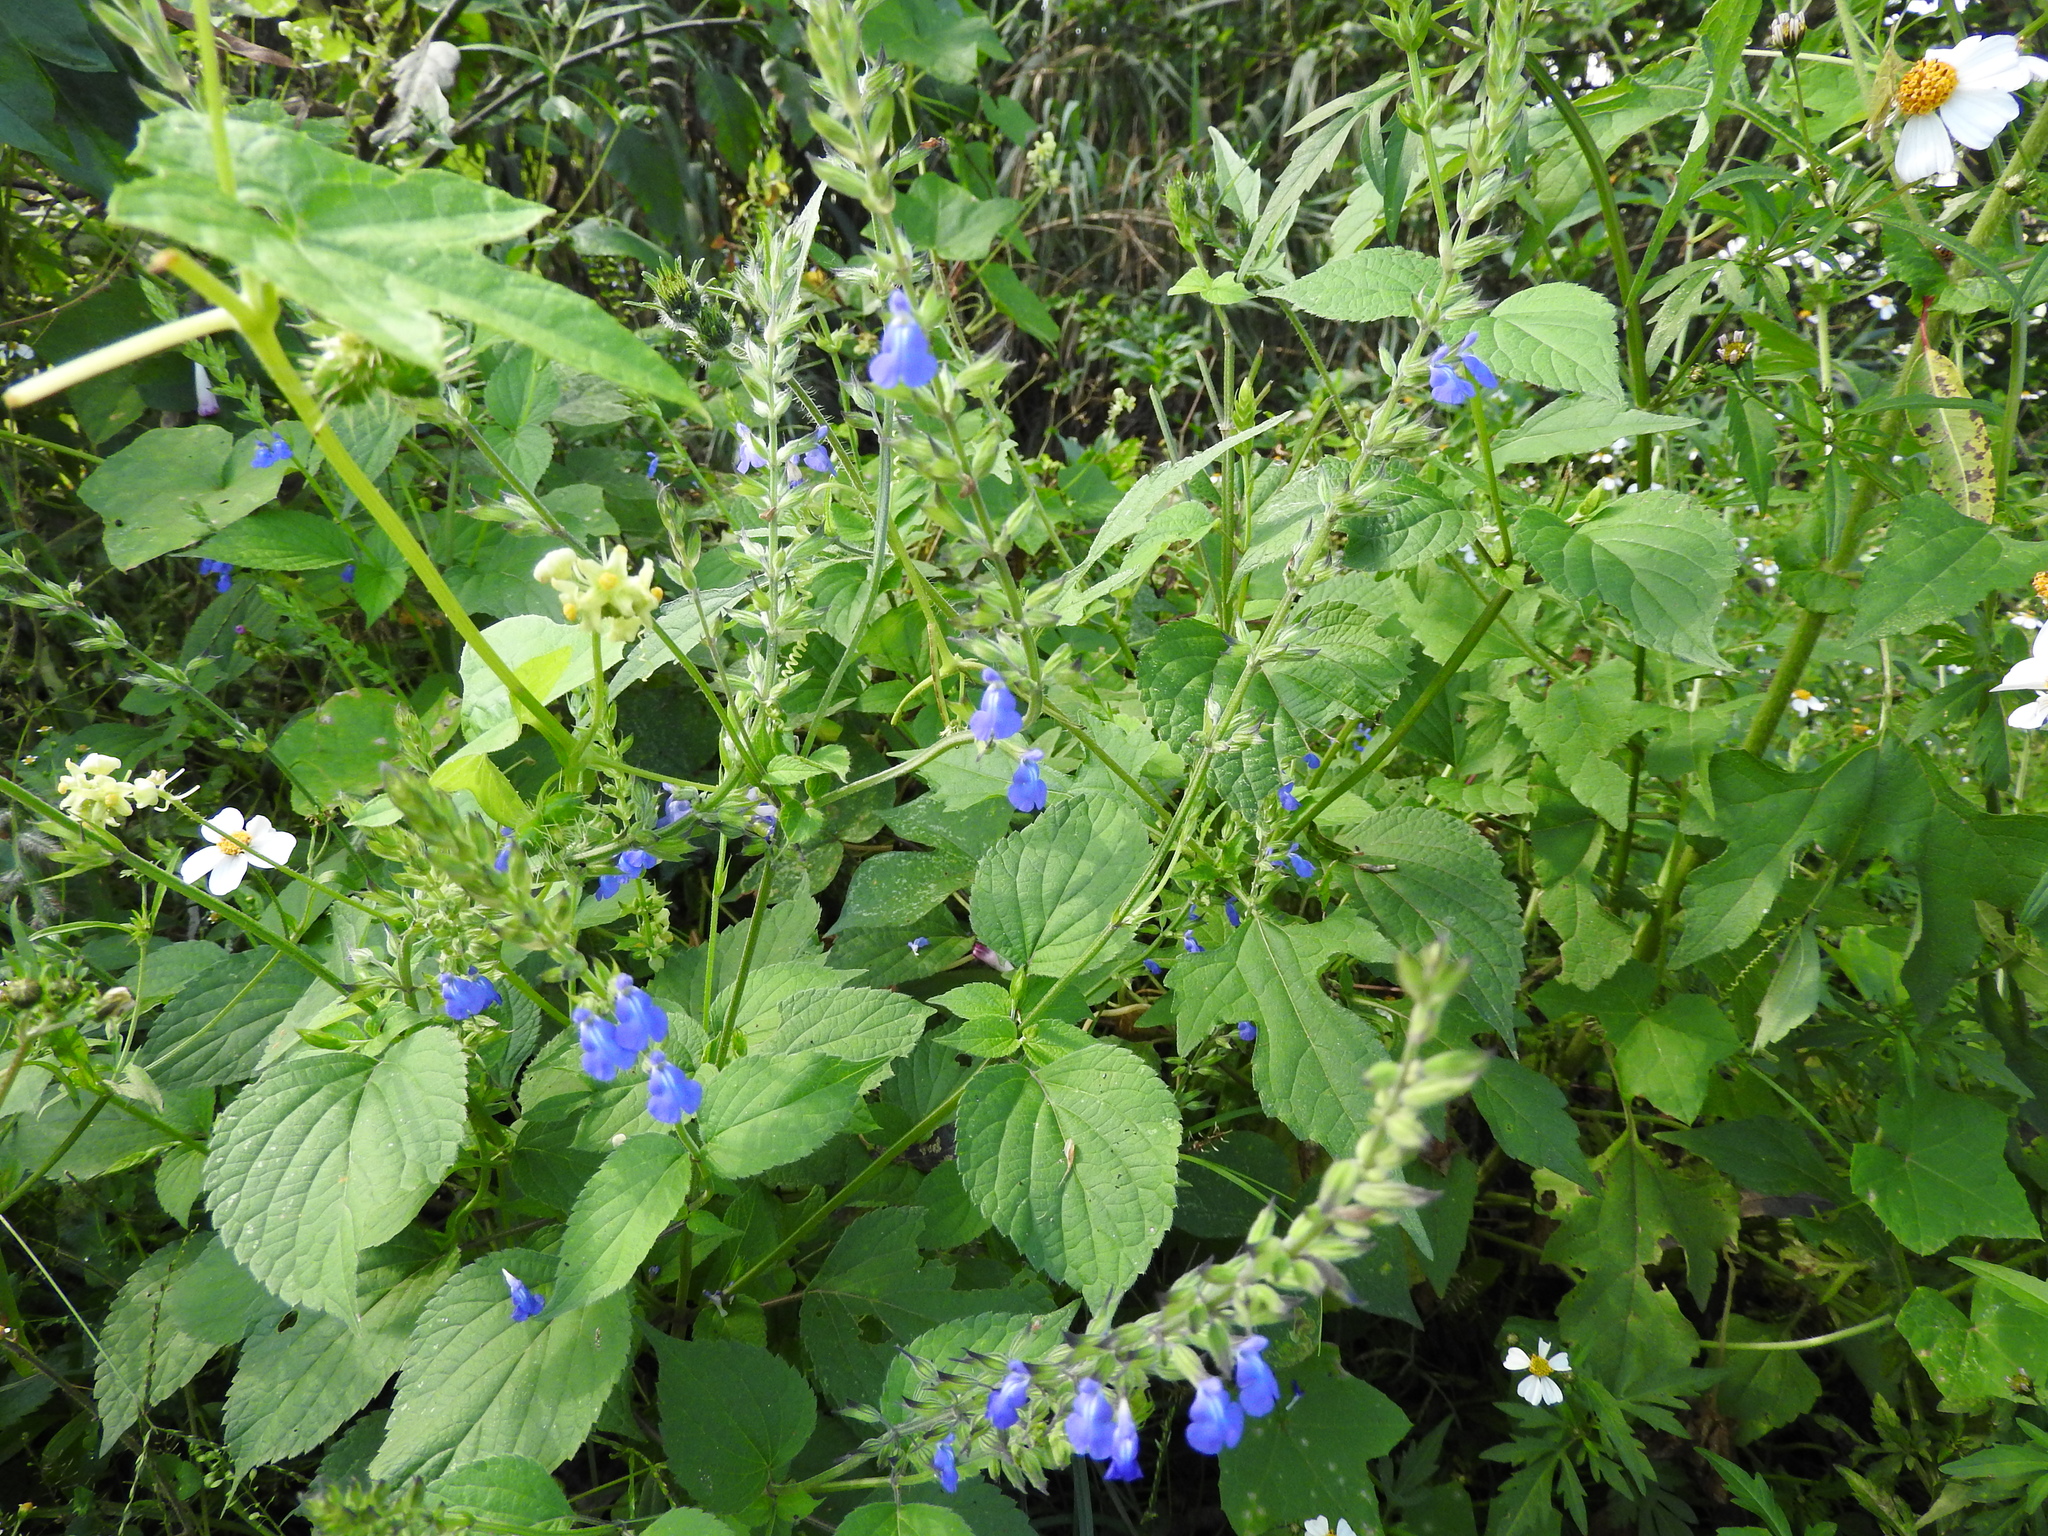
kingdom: Plantae
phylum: Tracheophyta
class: Magnoliopsida
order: Lamiales
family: Lamiaceae
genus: Salvia
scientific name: Salvia leptostachys
